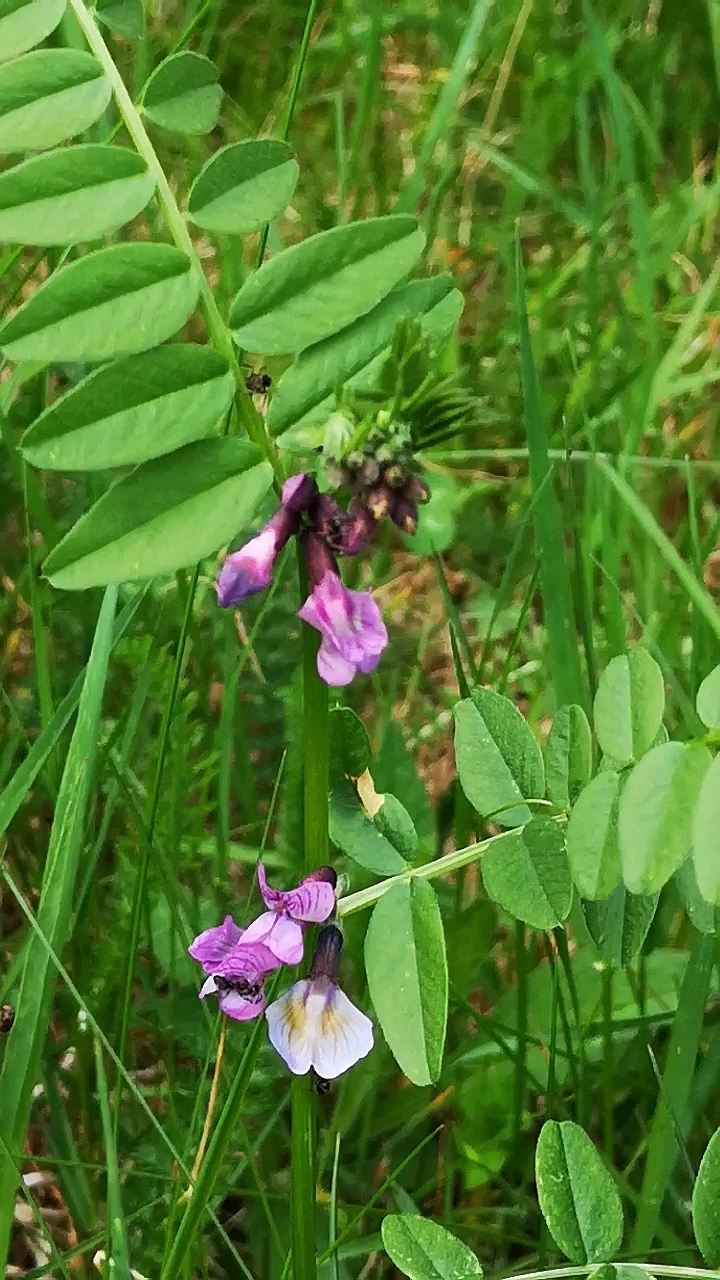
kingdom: Plantae
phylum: Tracheophyta
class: Magnoliopsida
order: Fabales
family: Fabaceae
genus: Vicia
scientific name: Vicia sepium
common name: Bush vetch
